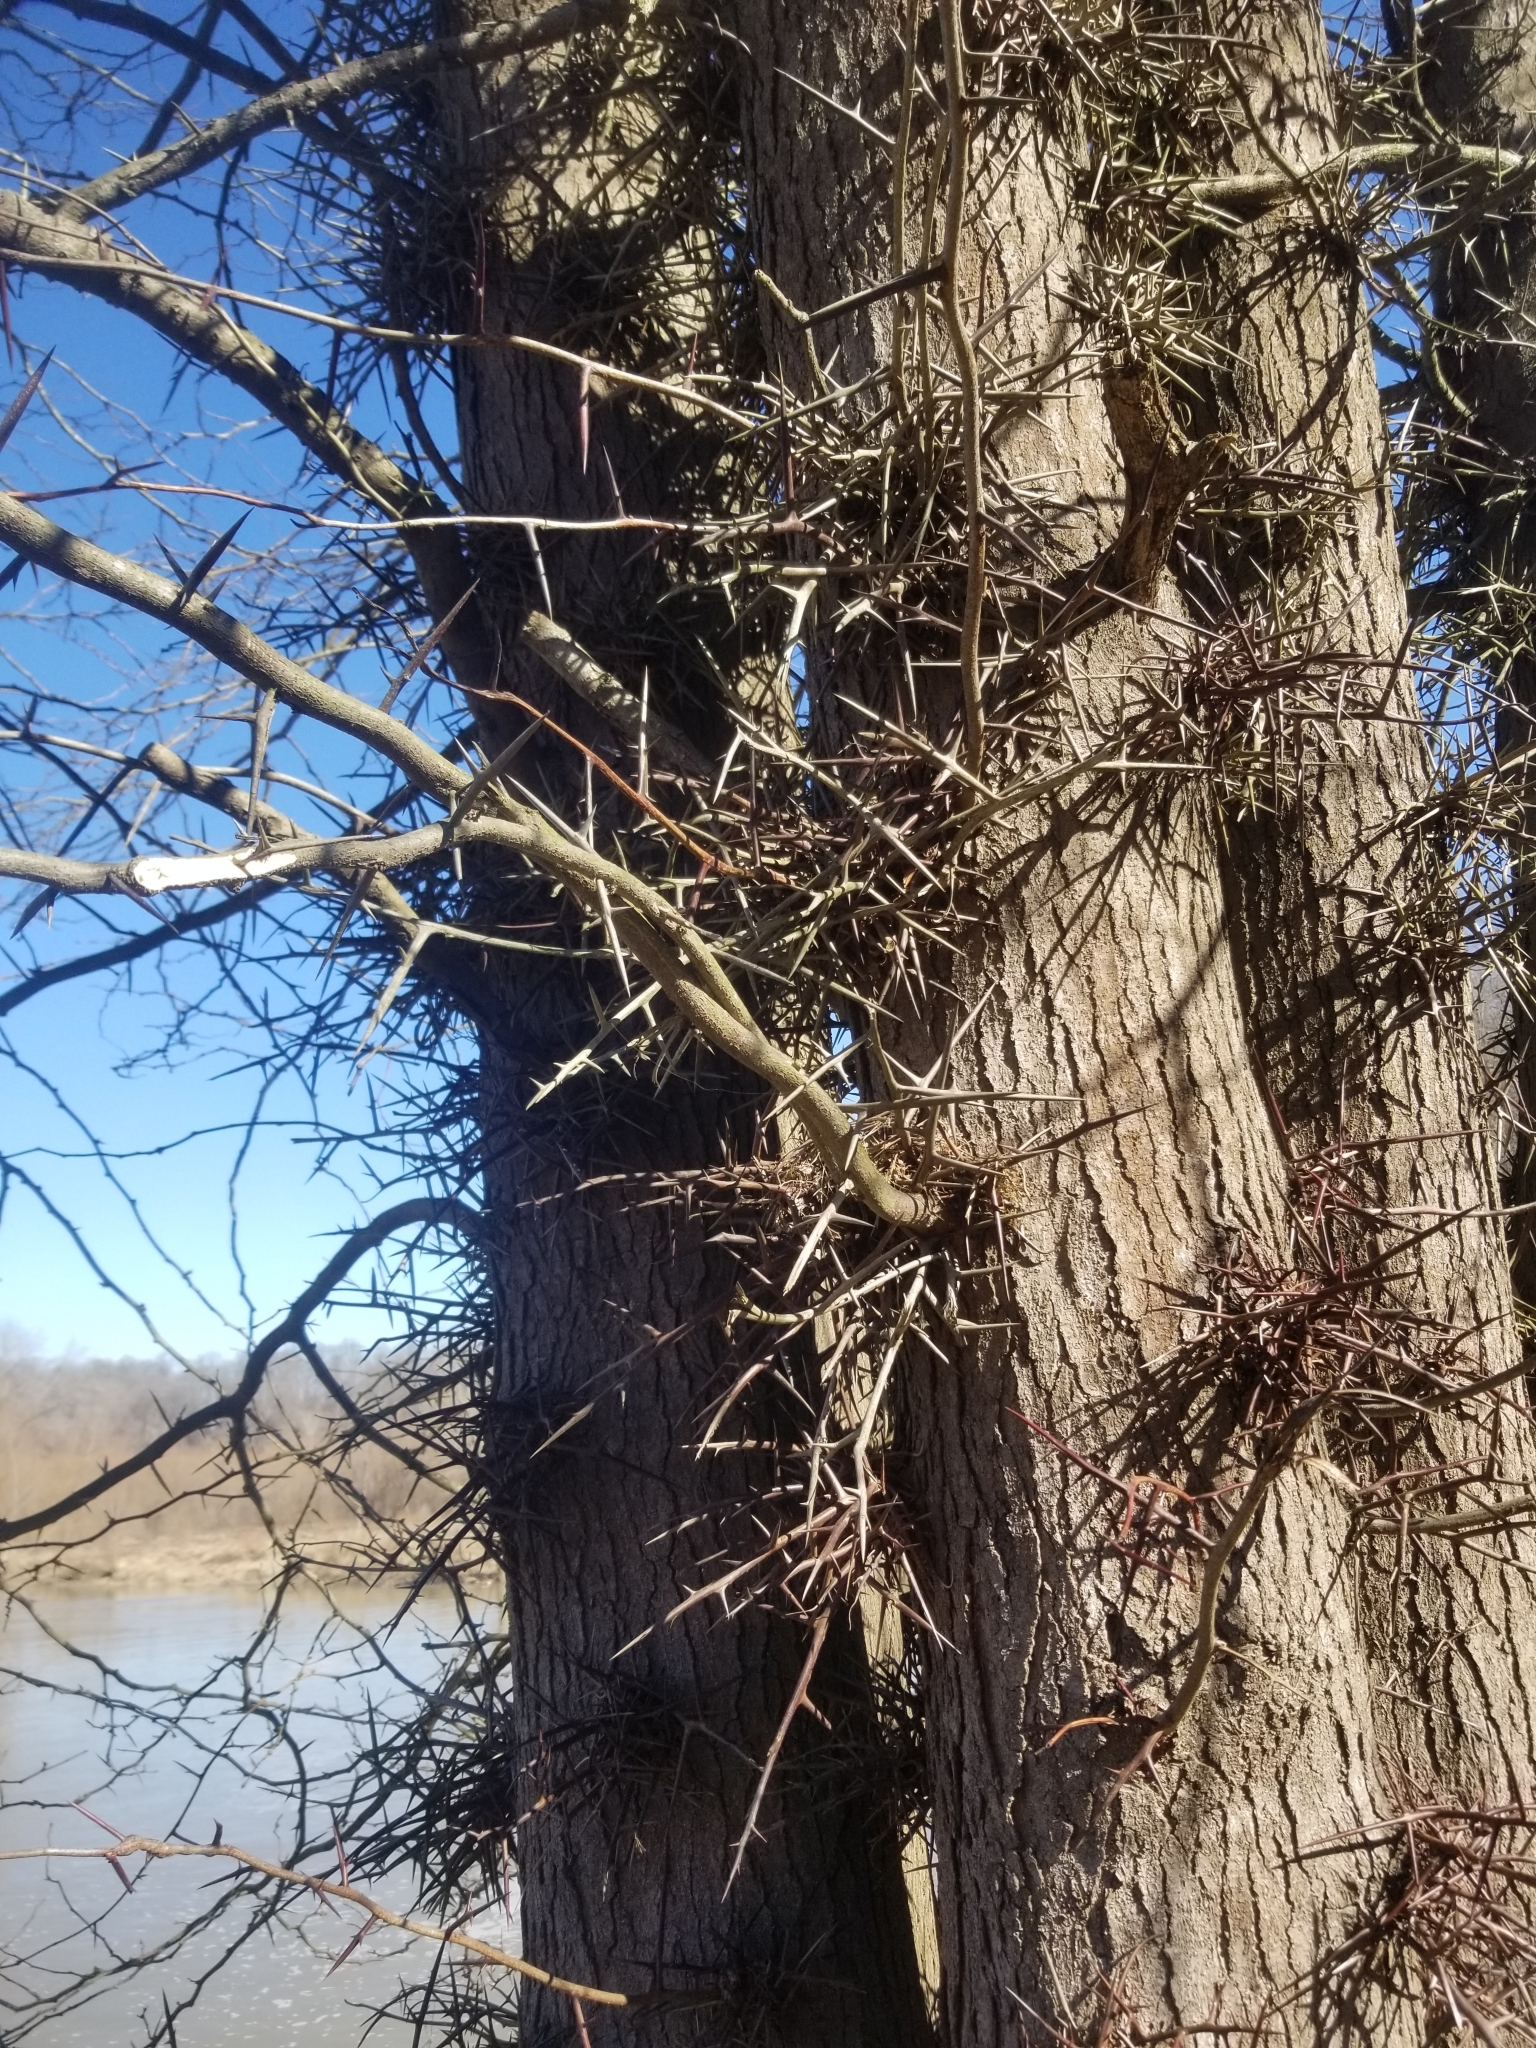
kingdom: Plantae
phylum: Tracheophyta
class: Magnoliopsida
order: Fabales
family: Fabaceae
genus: Gleditsia
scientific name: Gleditsia triacanthos
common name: Common honeylocust
